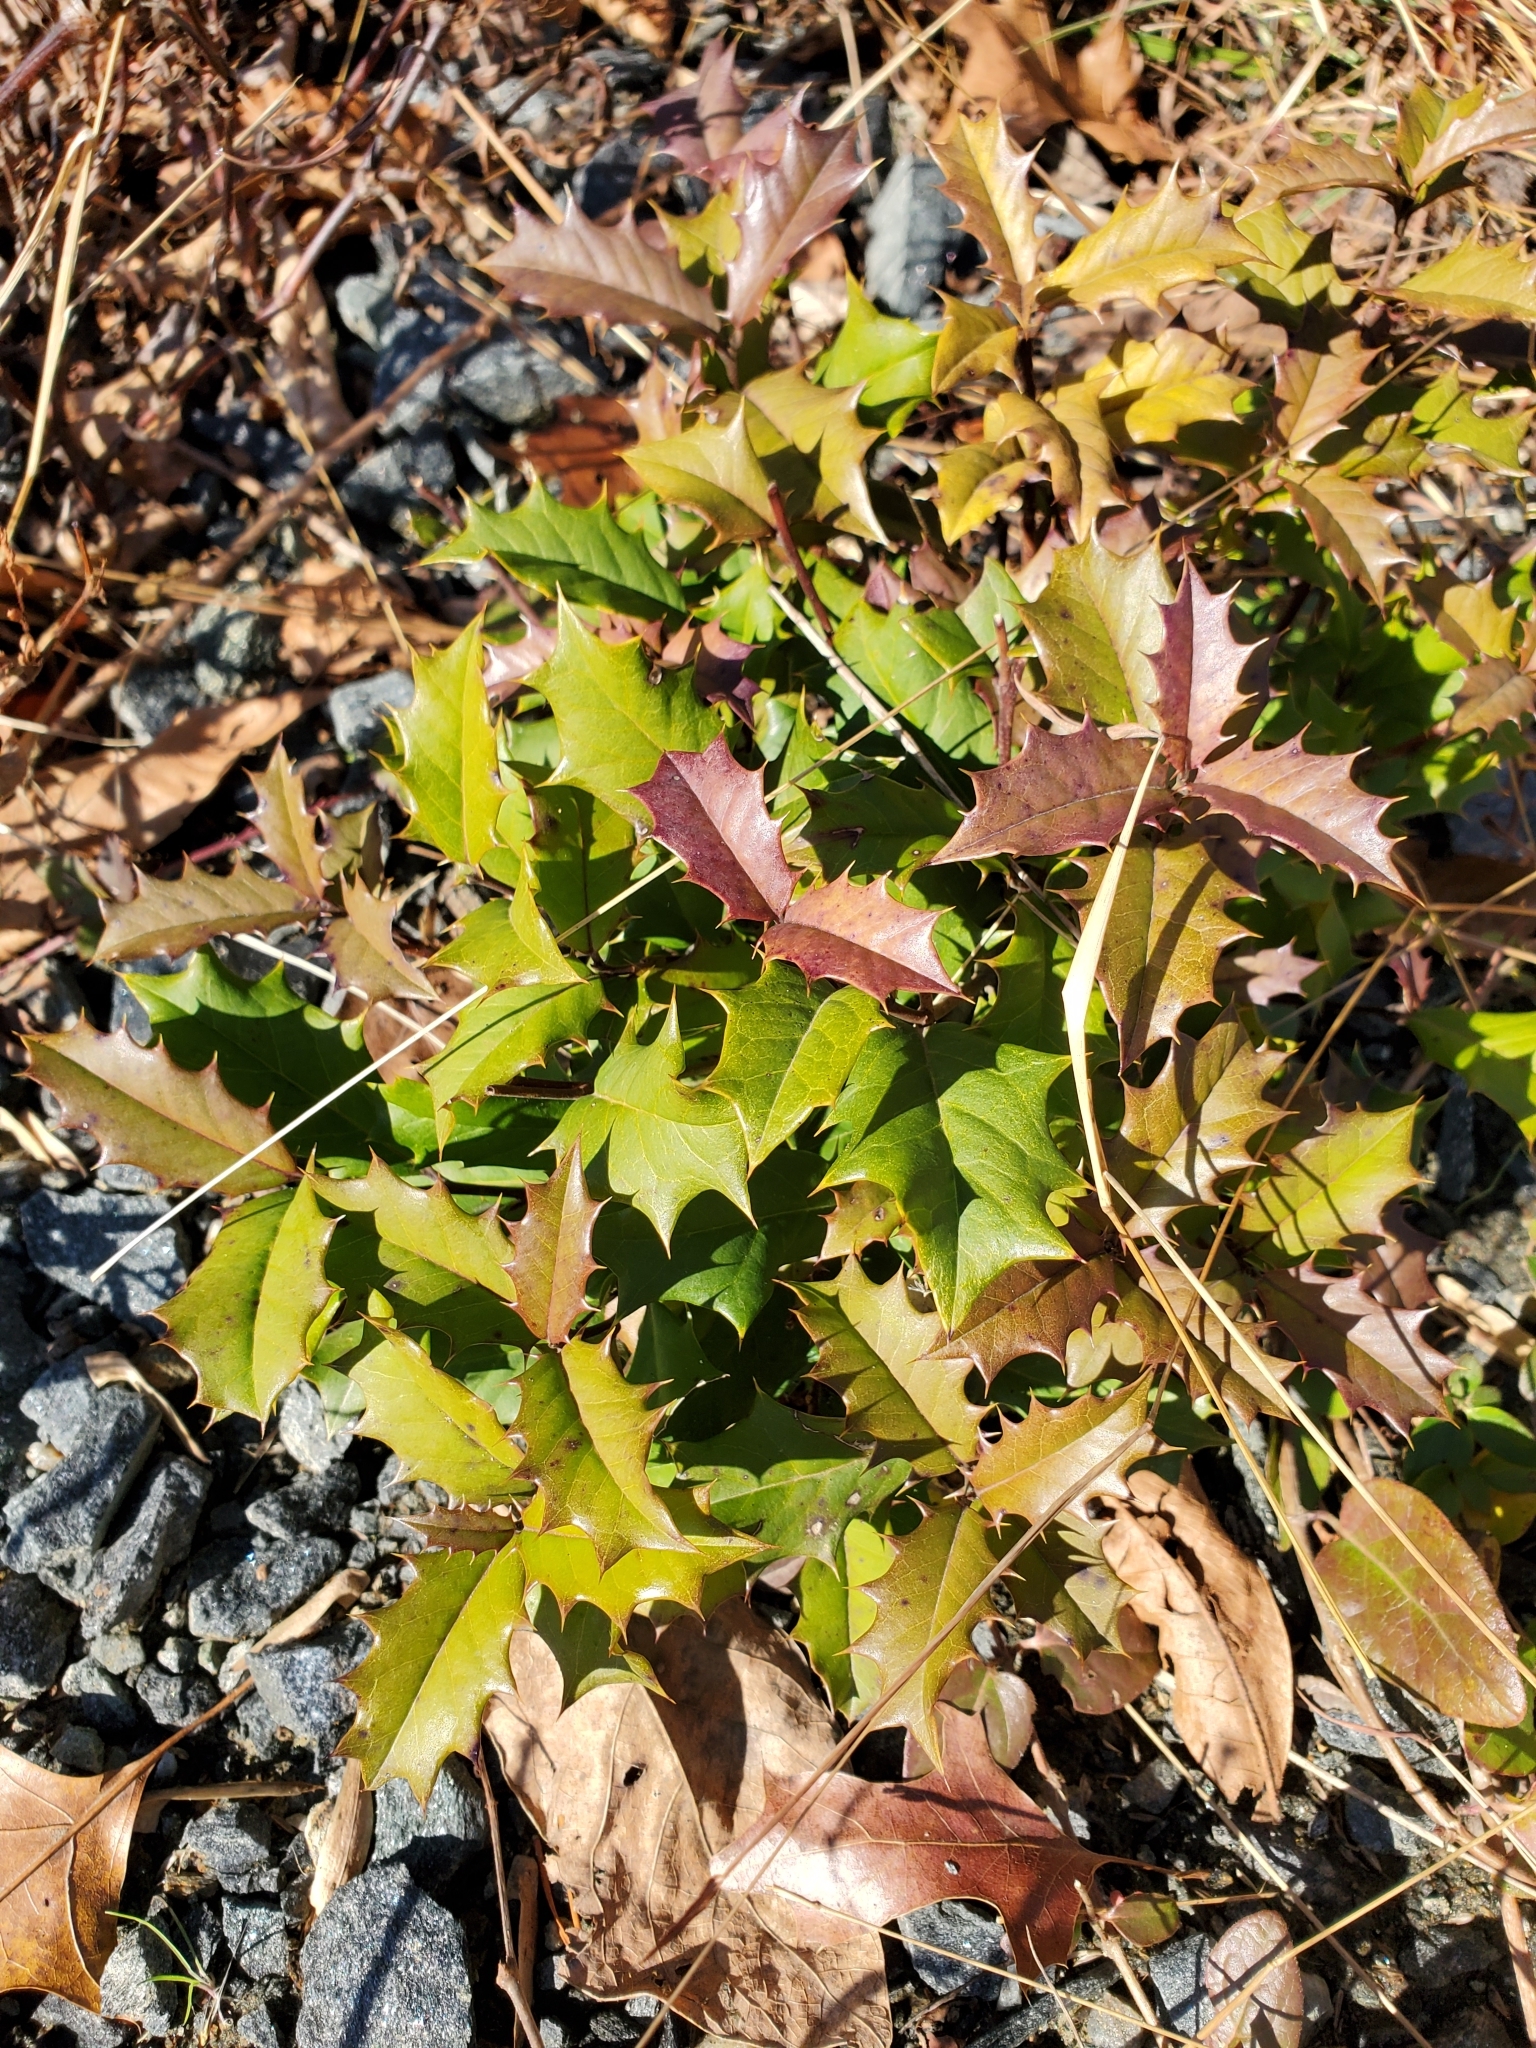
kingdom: Plantae
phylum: Tracheophyta
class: Magnoliopsida
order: Aquifoliales
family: Aquifoliaceae
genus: Ilex
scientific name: Ilex opaca
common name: American holly
